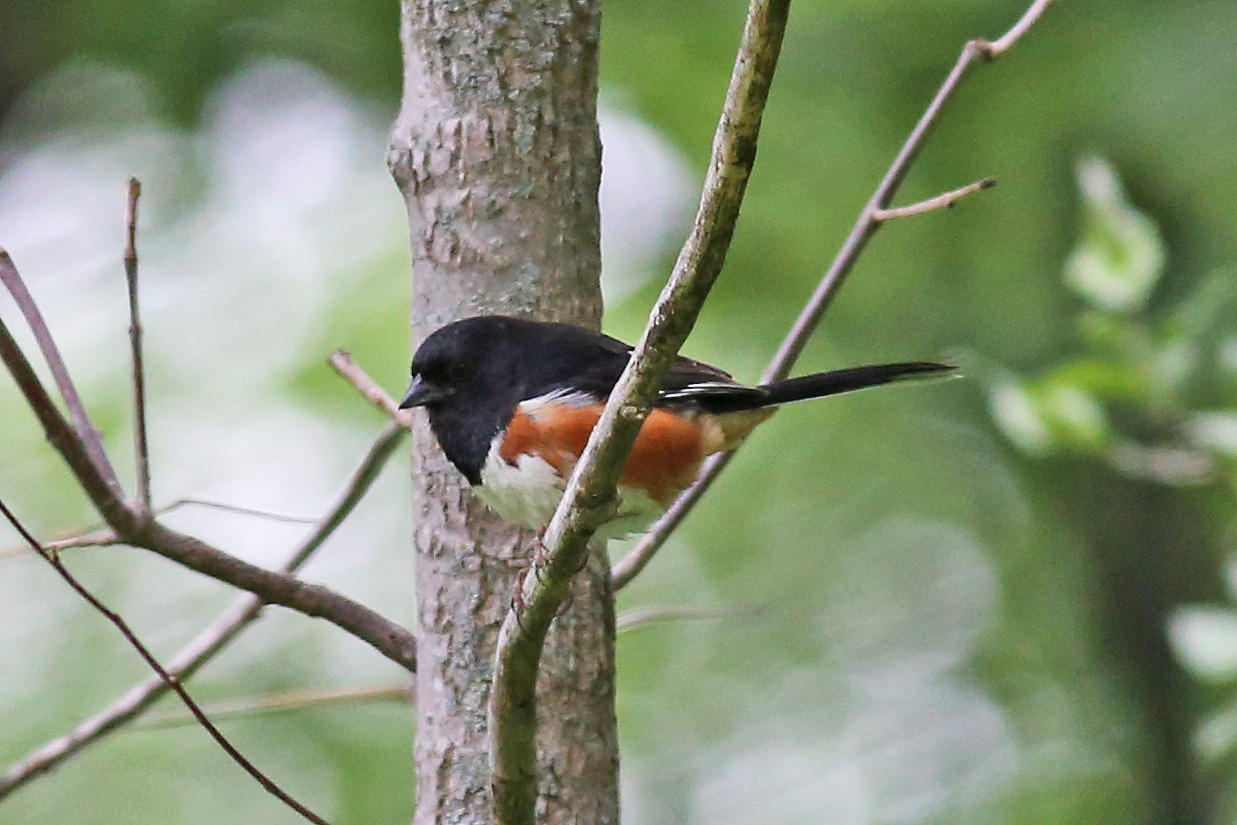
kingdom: Animalia
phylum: Chordata
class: Aves
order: Passeriformes
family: Passerellidae
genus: Pipilo
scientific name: Pipilo erythrophthalmus
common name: Eastern towhee
